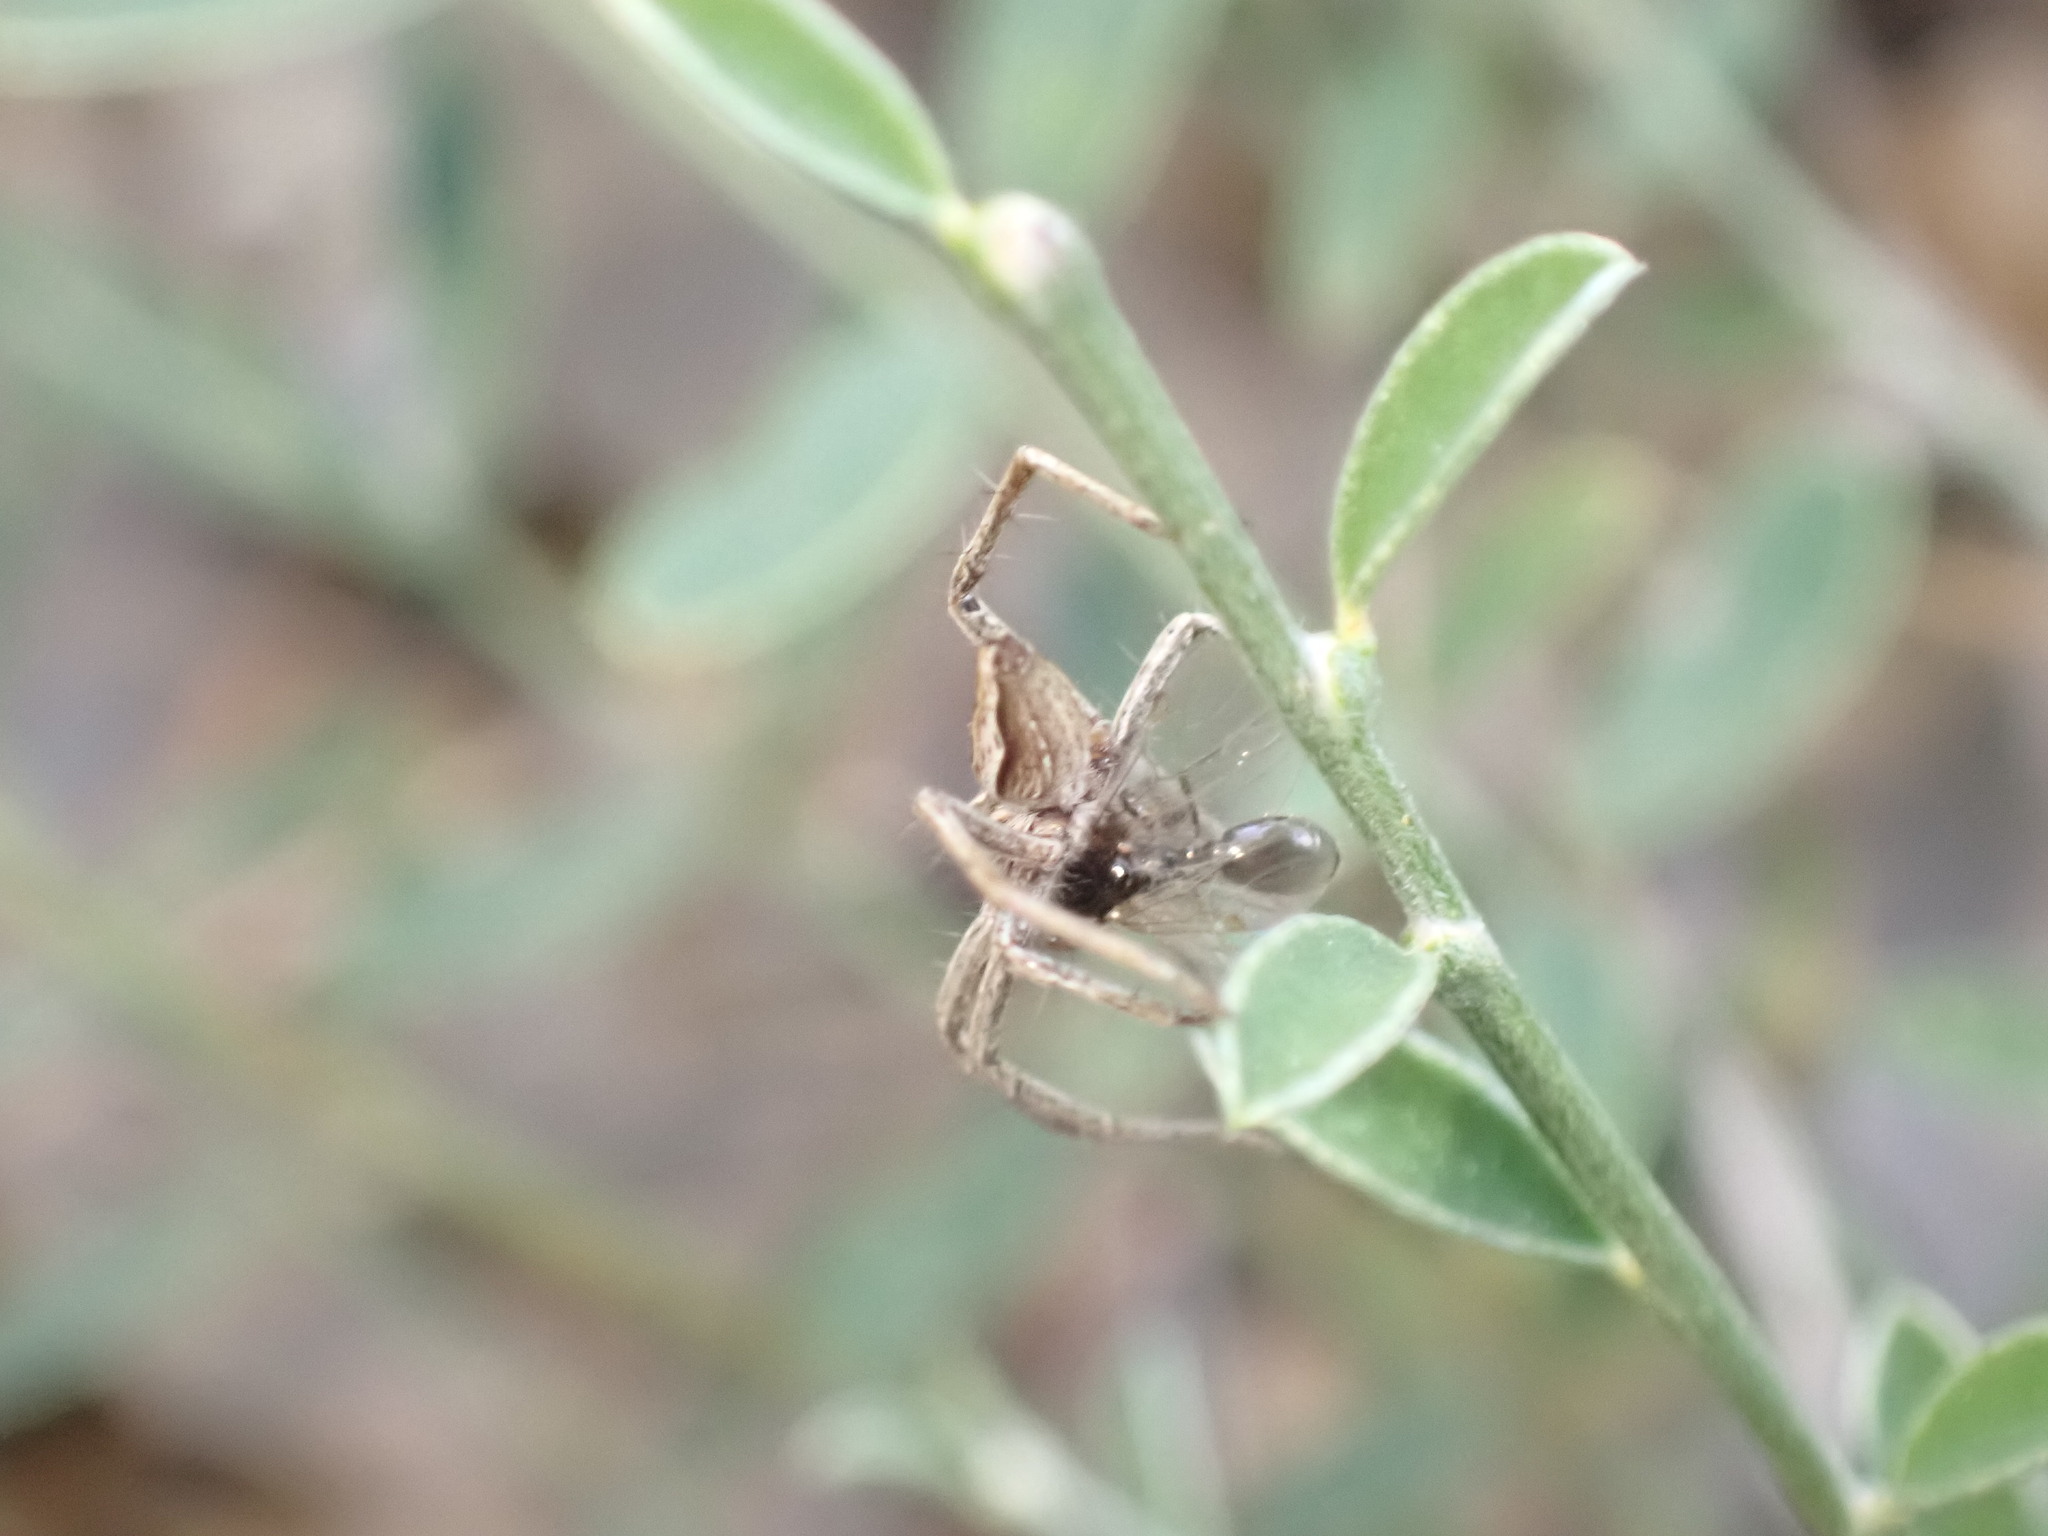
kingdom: Animalia
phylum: Arthropoda
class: Arachnida
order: Araneae
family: Pisauridae
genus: Pisaura
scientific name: Pisaura
